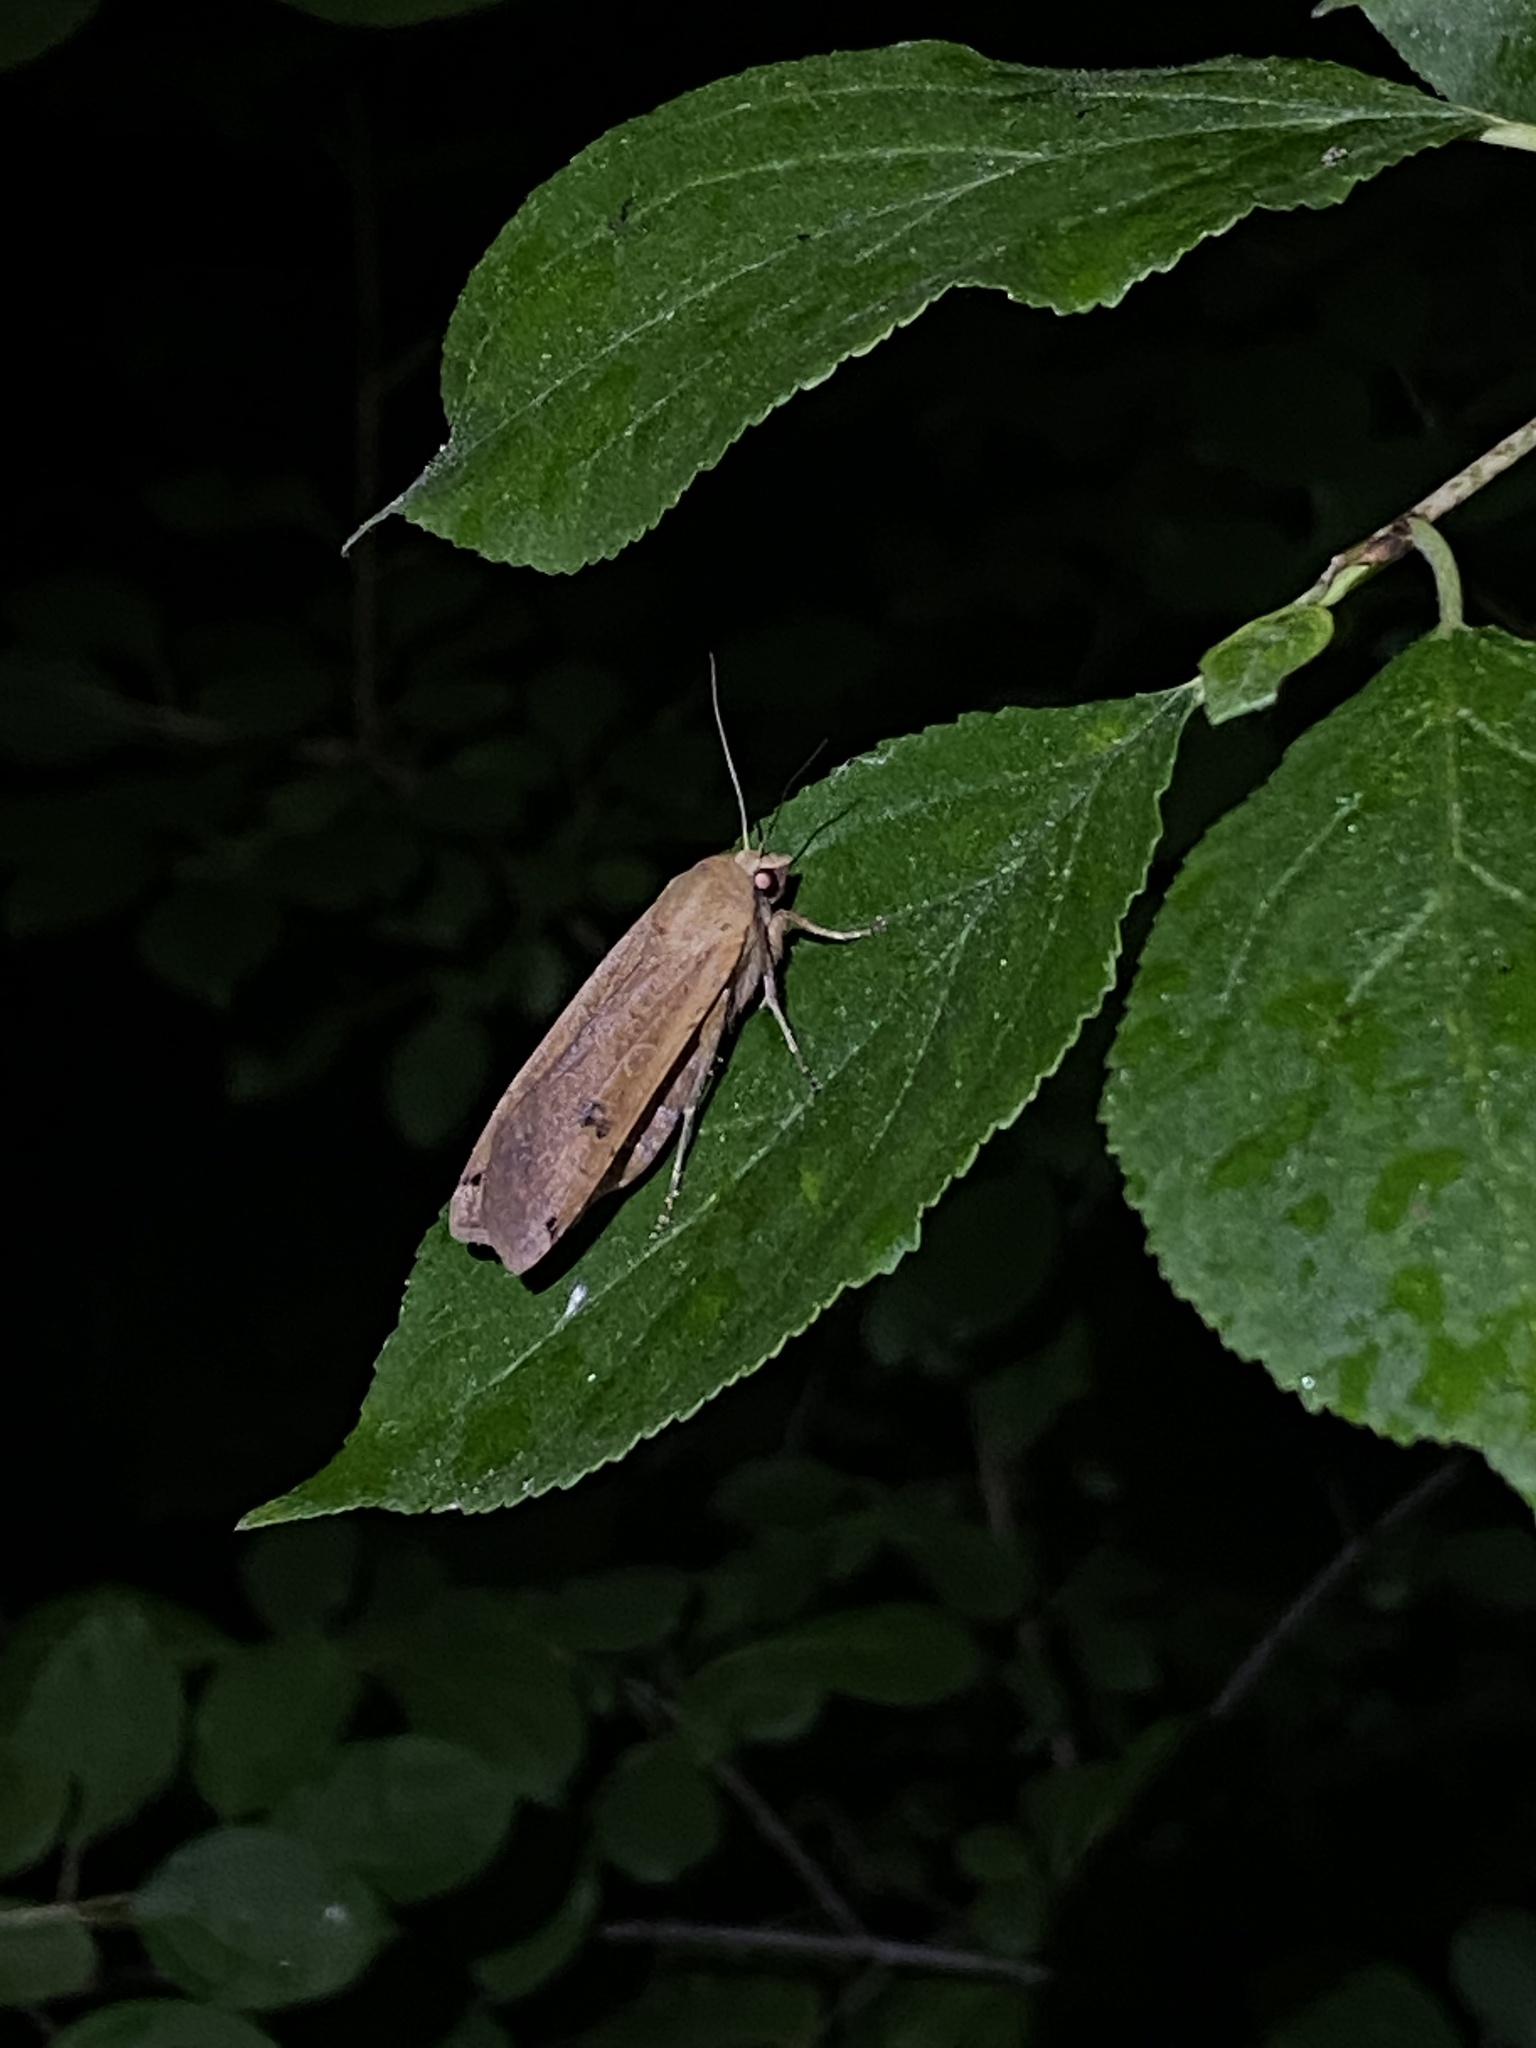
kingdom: Animalia
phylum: Arthropoda
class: Insecta
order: Lepidoptera
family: Noctuidae
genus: Noctua
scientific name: Noctua pronuba
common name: Large yellow underwing
